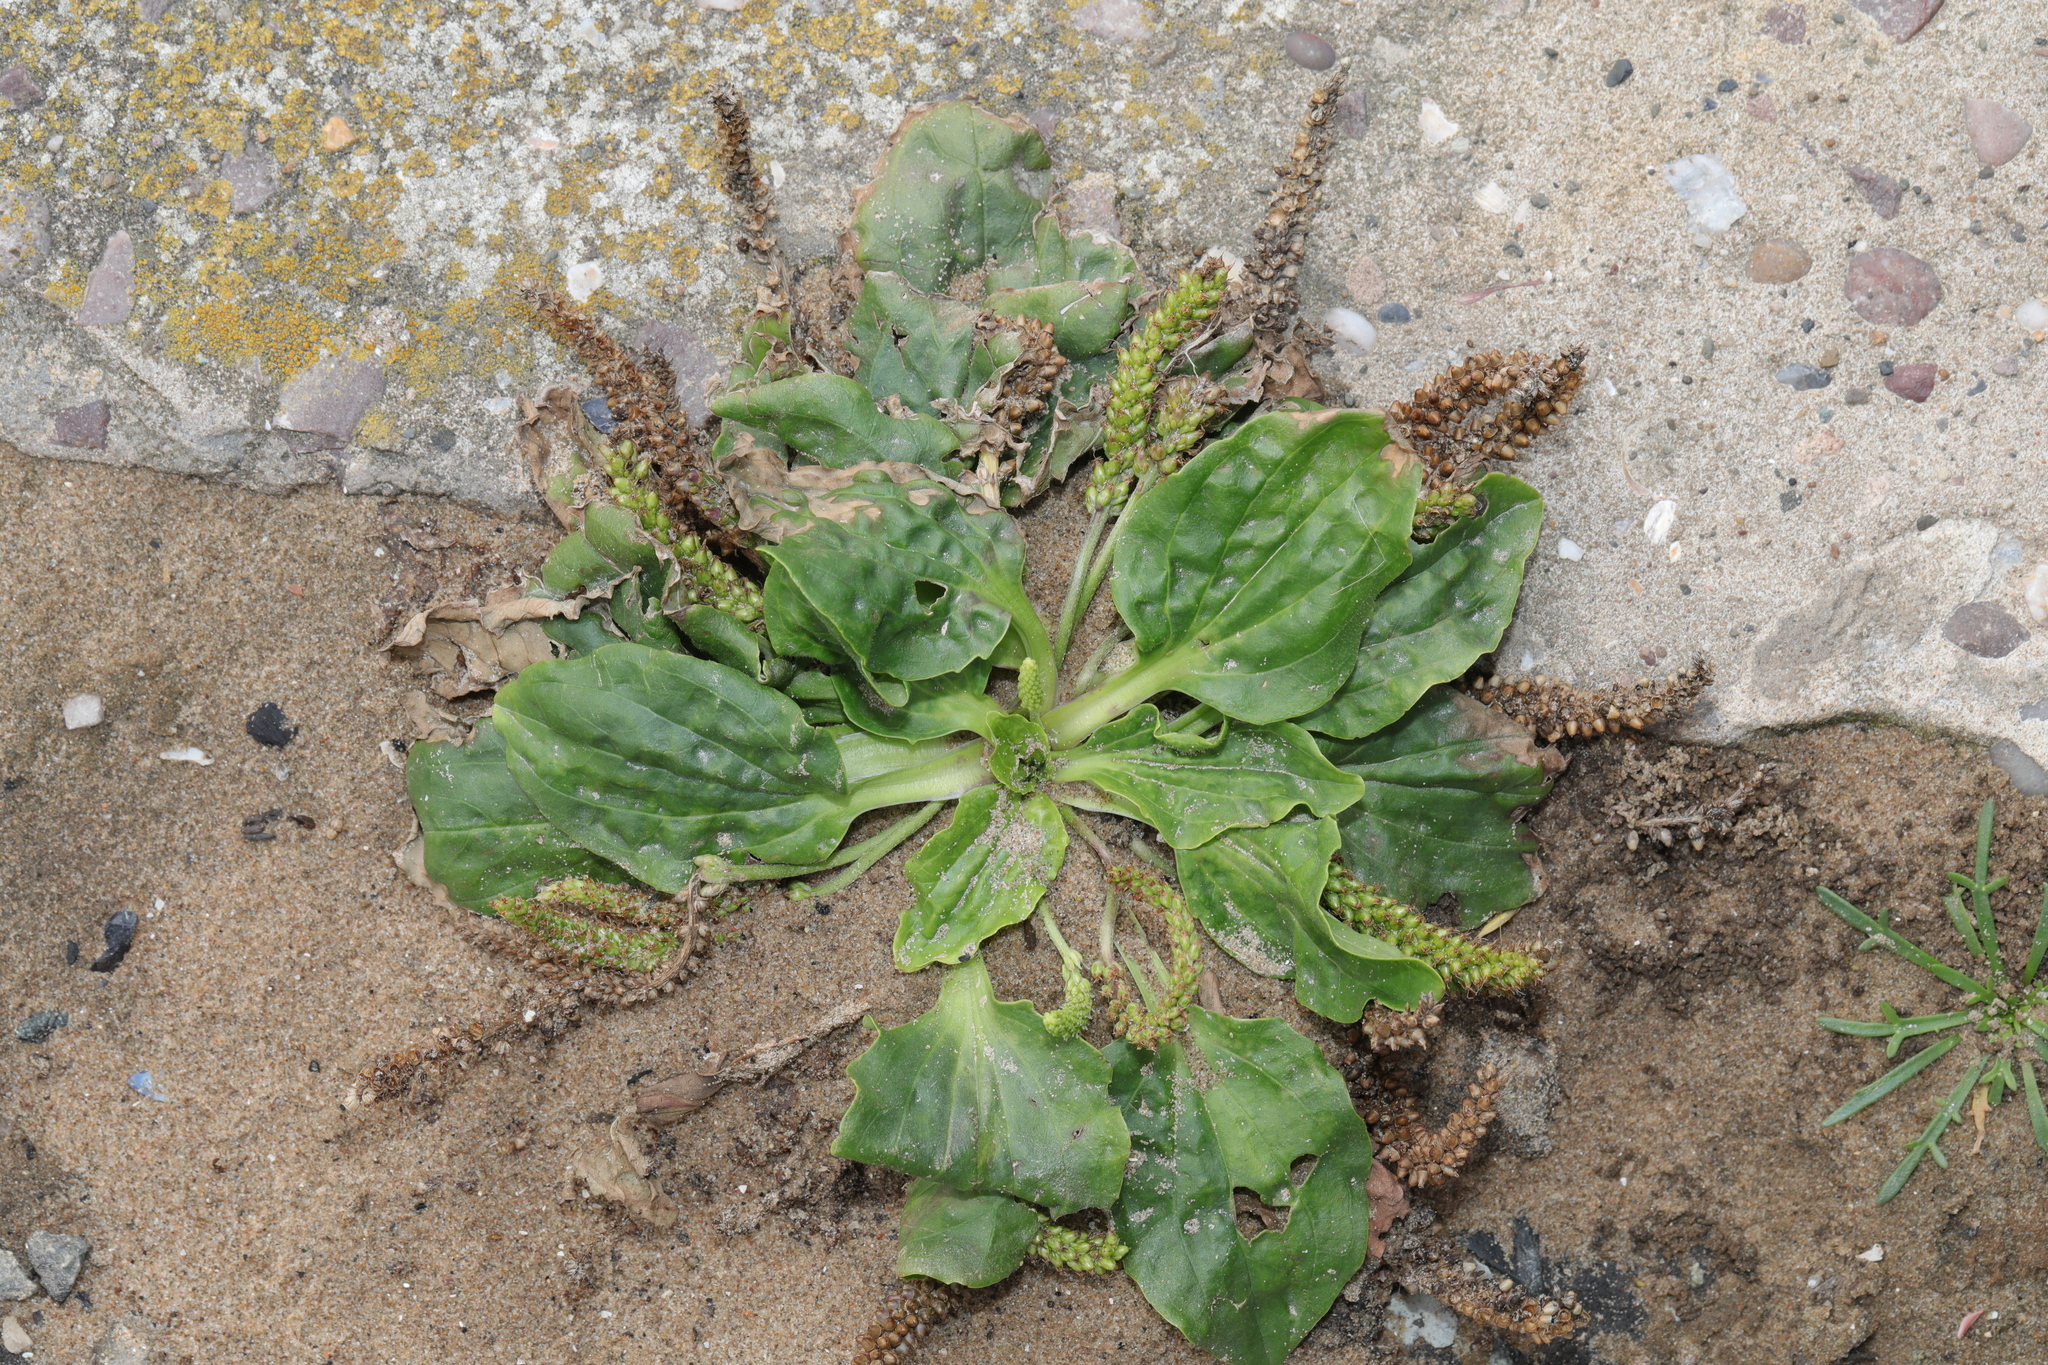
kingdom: Plantae
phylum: Tracheophyta
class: Magnoliopsida
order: Lamiales
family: Plantaginaceae
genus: Plantago
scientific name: Plantago major
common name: Common plantain
